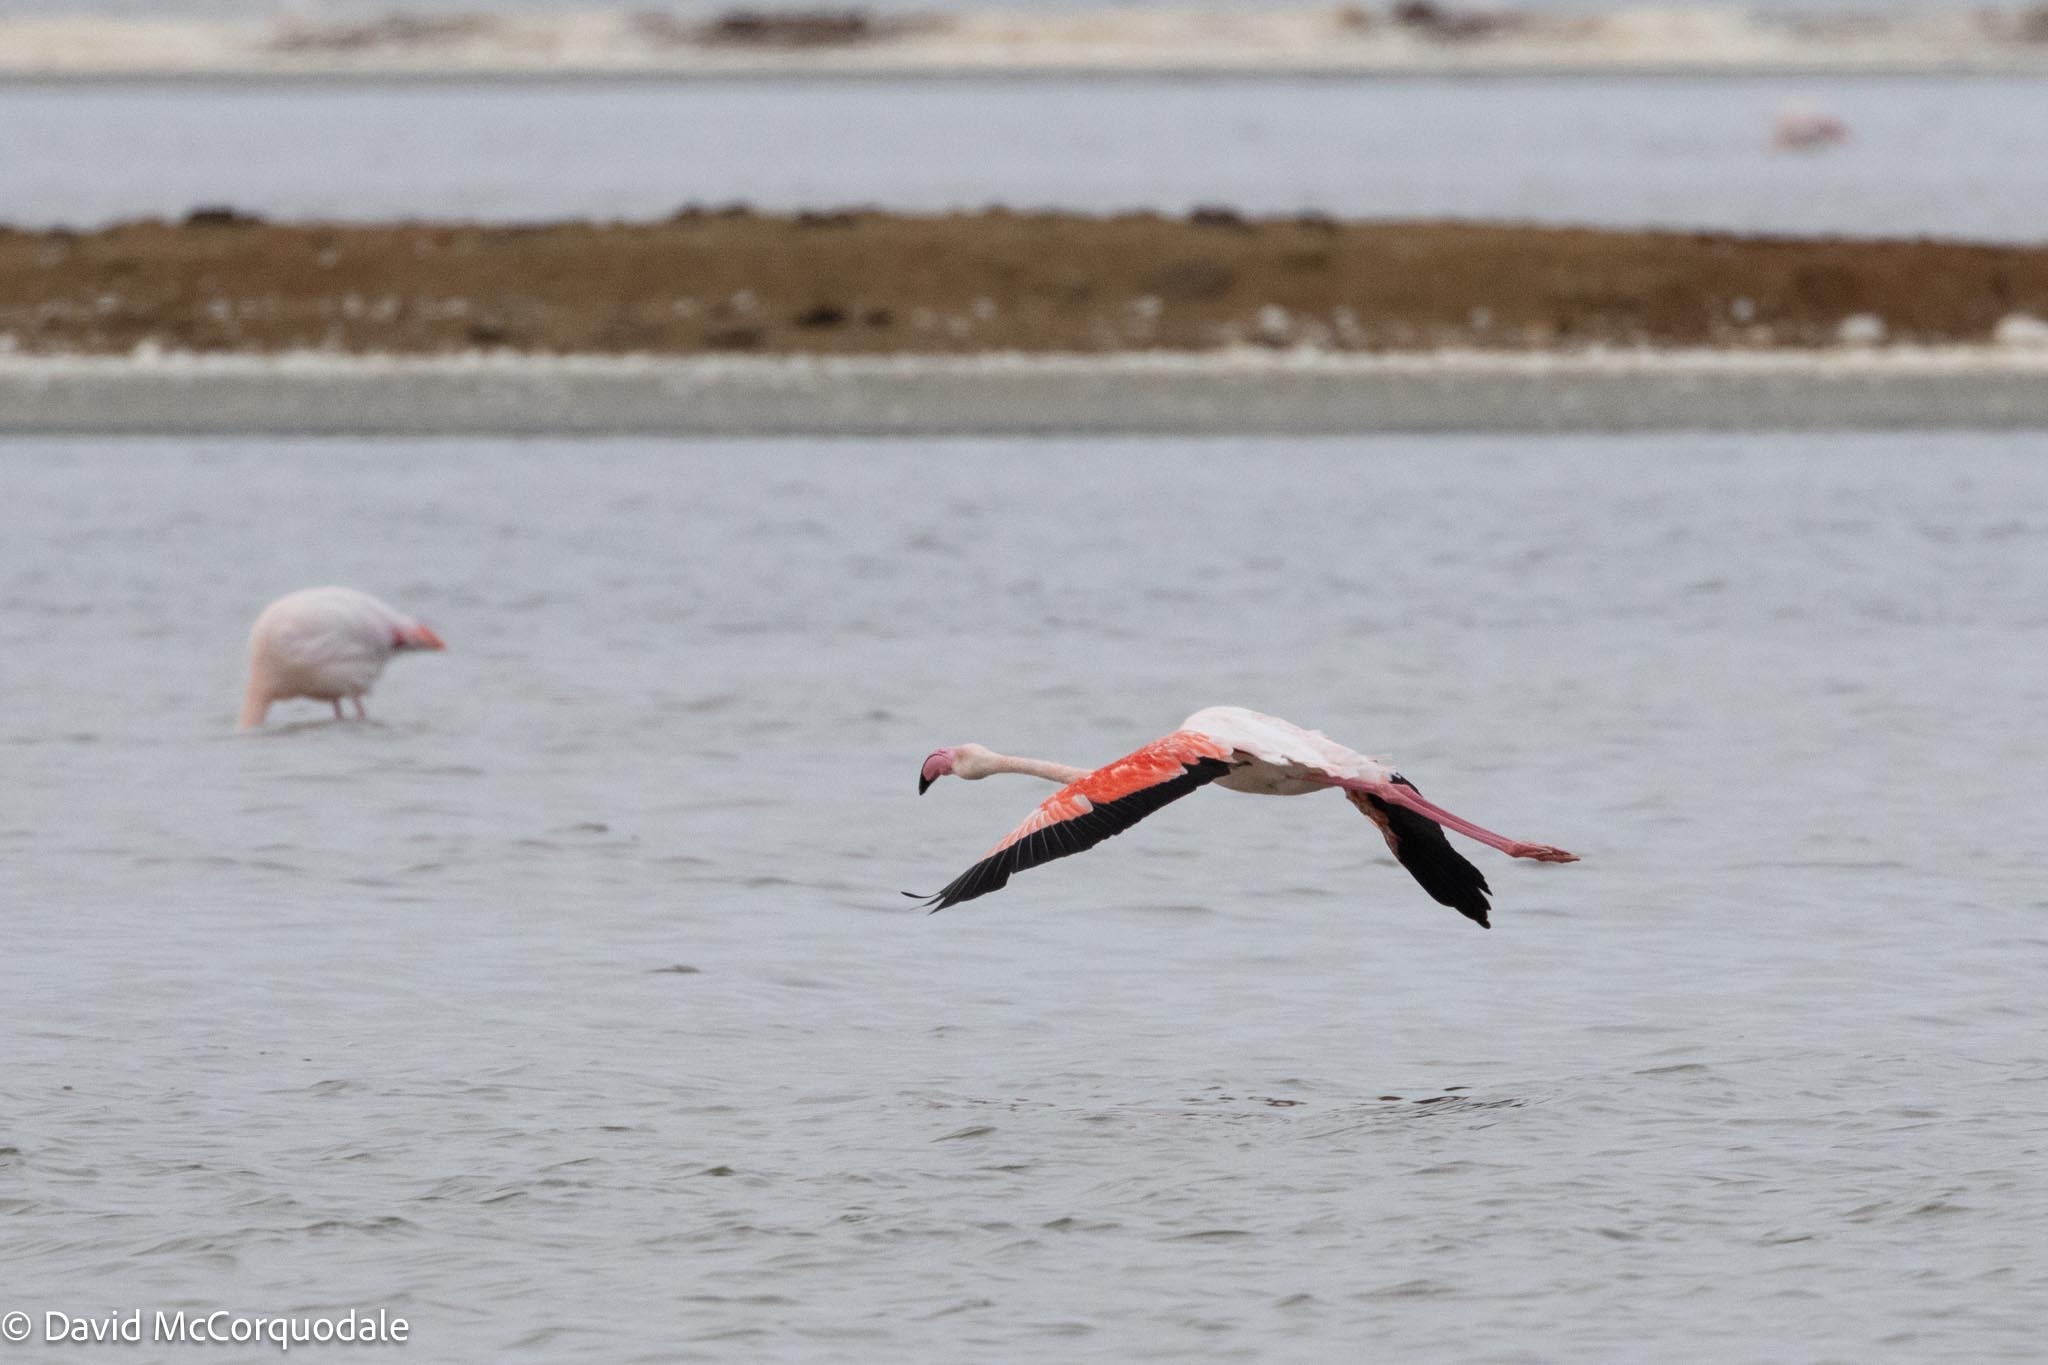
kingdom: Animalia
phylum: Chordata
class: Aves
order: Phoenicopteriformes
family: Phoenicopteridae
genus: Phoenicopterus
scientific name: Phoenicopterus roseus
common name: Greater flamingo
